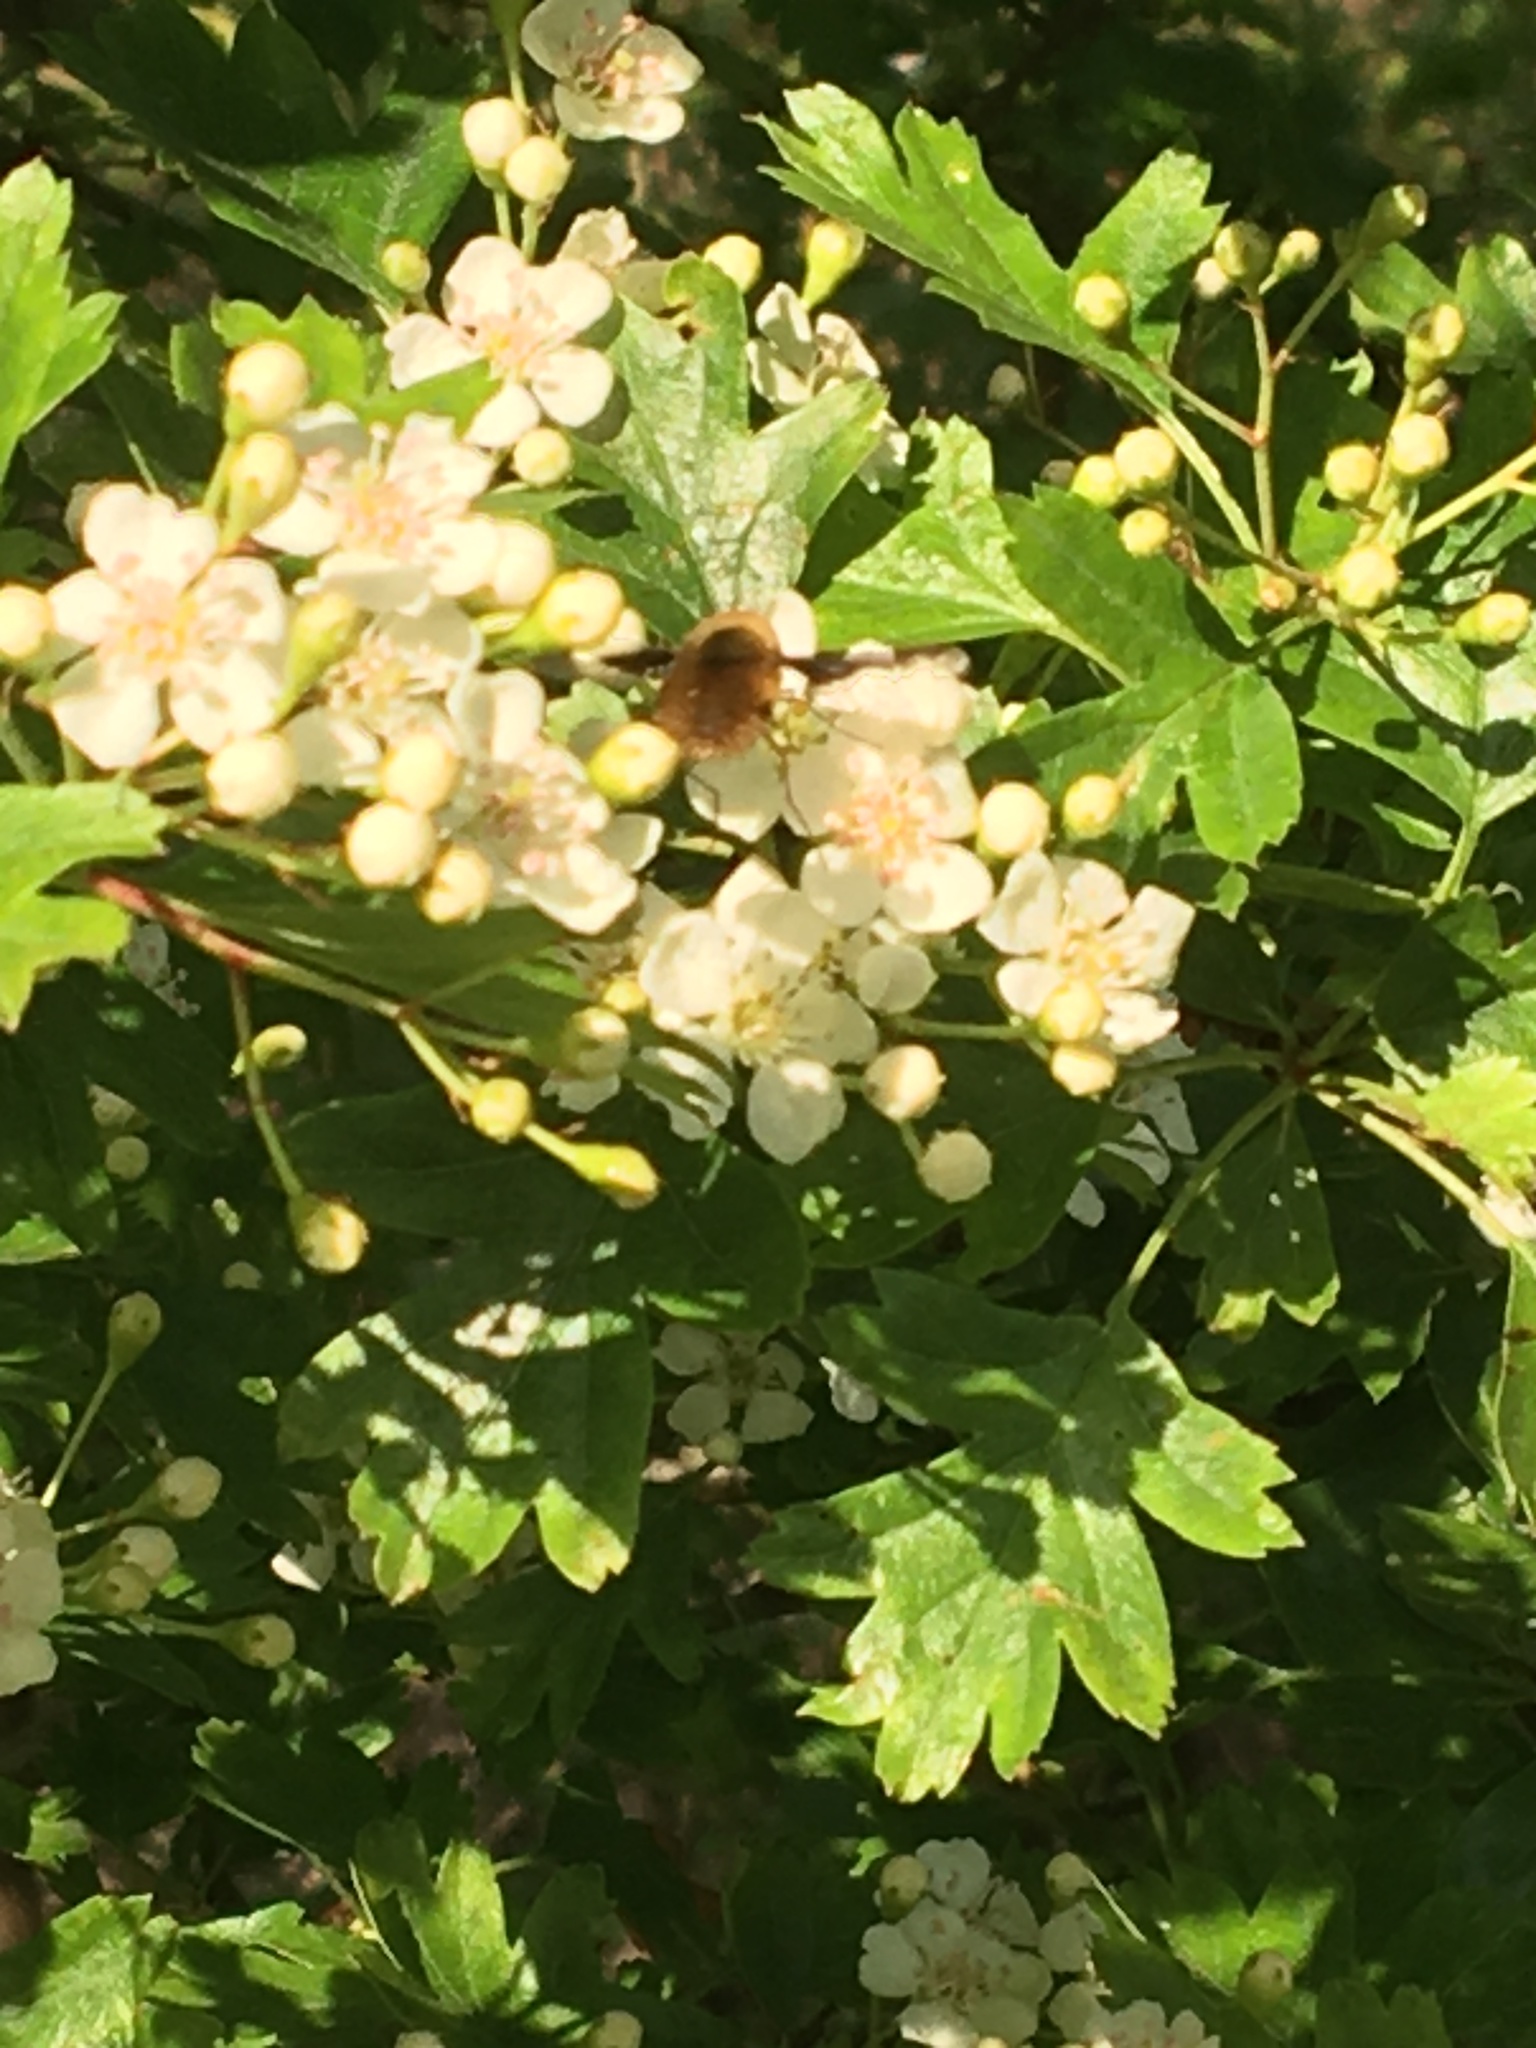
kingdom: Animalia
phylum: Arthropoda
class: Insecta
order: Diptera
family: Bombyliidae
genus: Bombylius
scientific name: Bombylius major
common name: Bee fly
